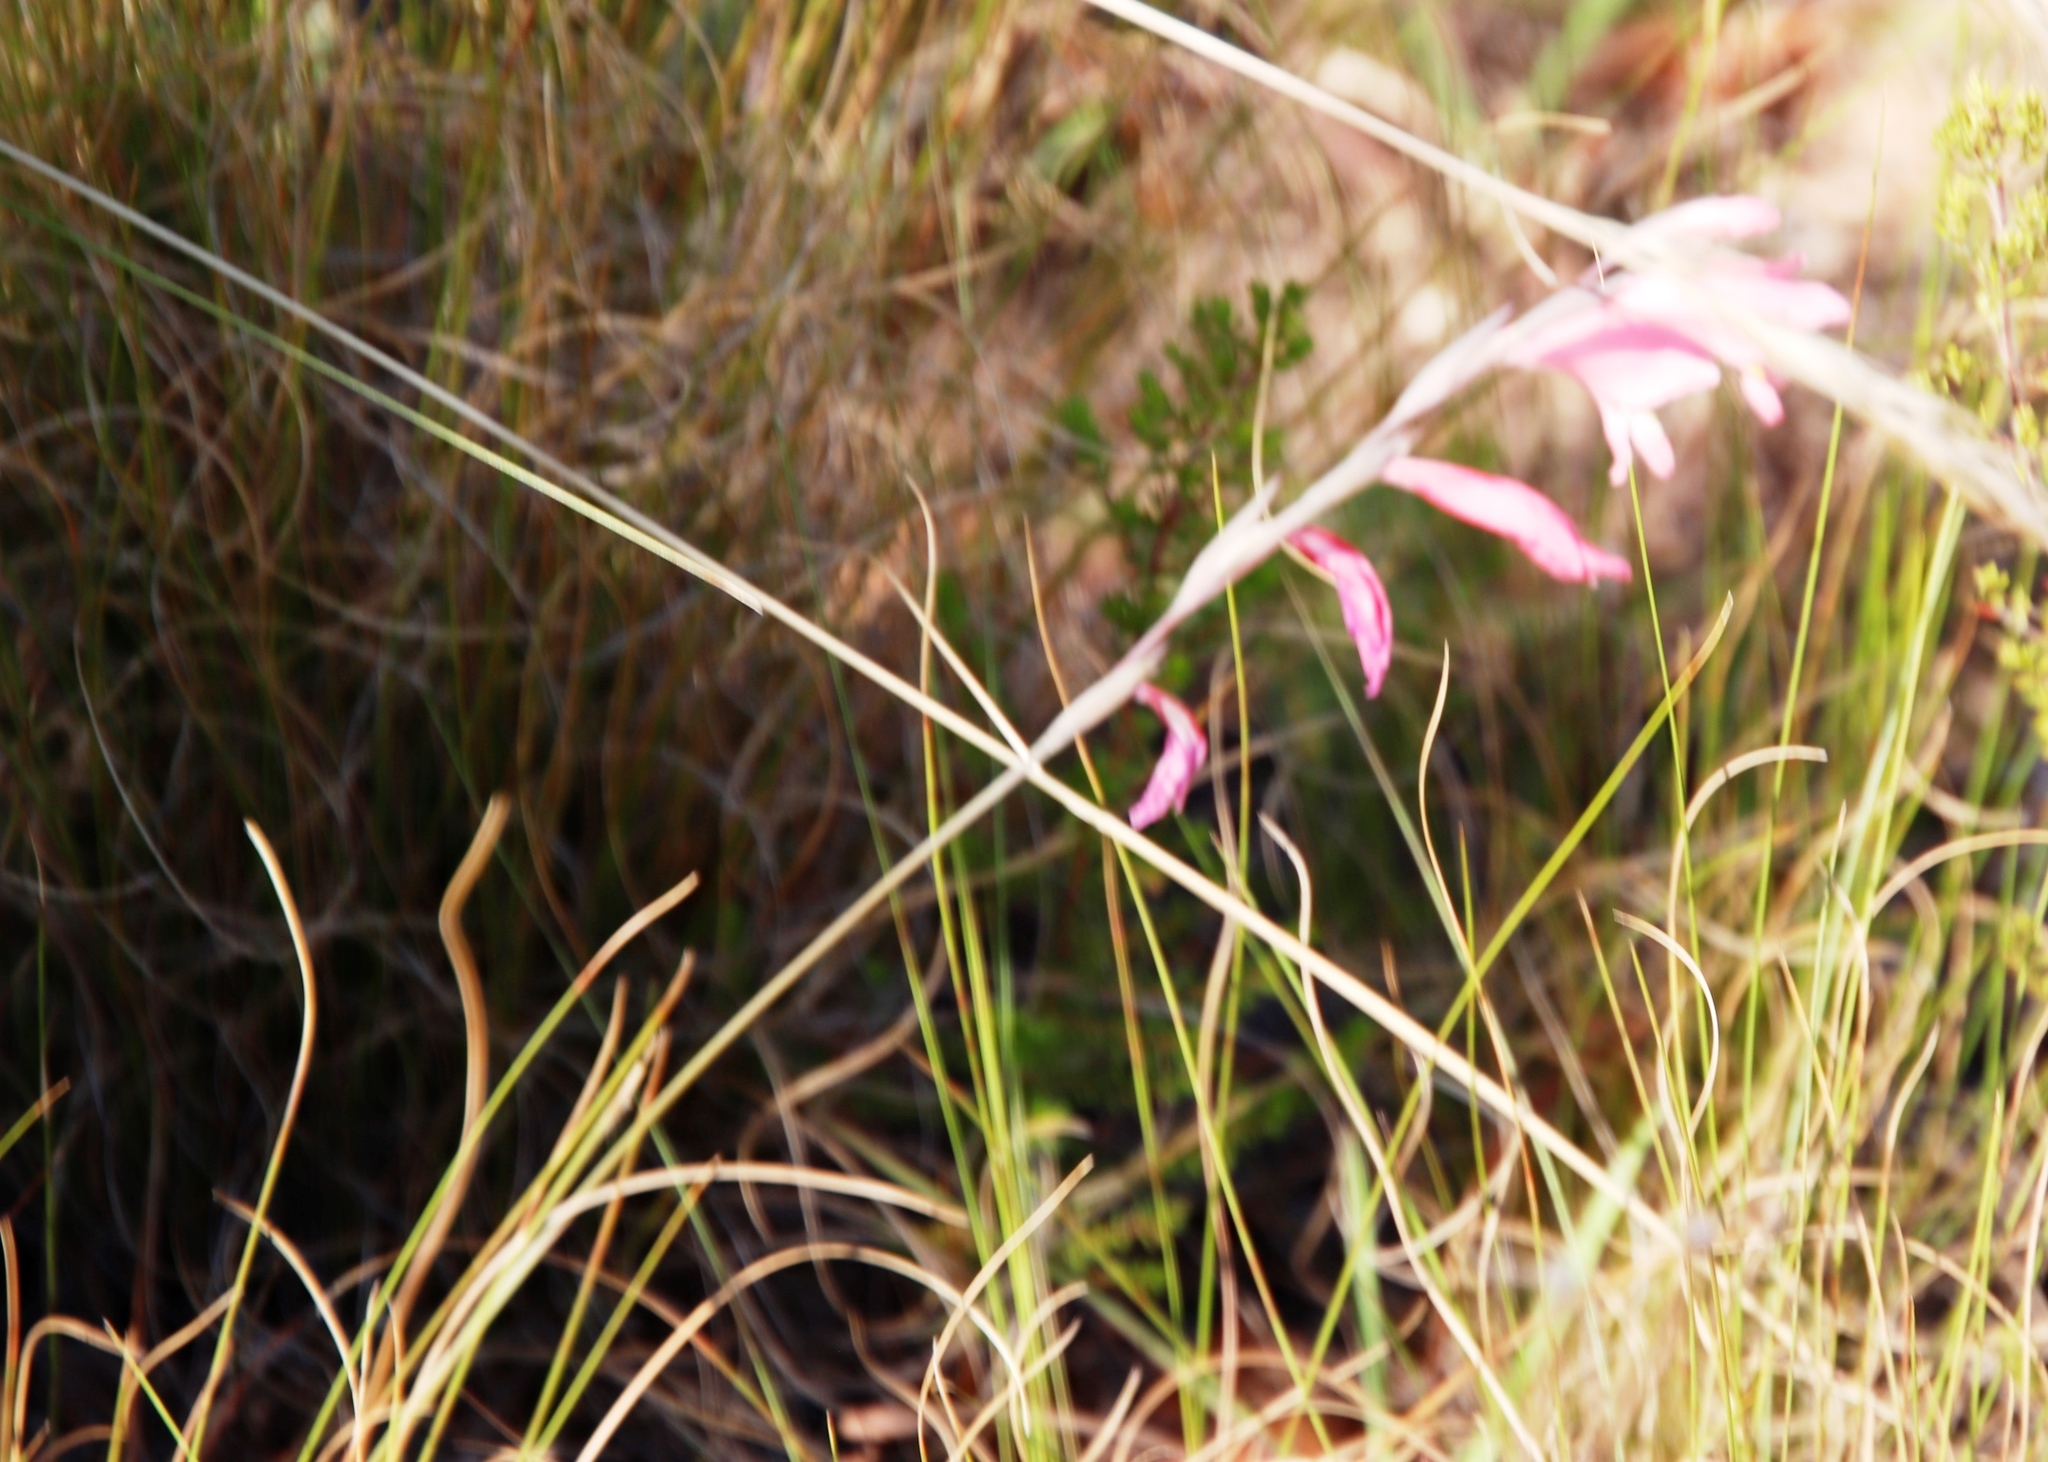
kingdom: Plantae
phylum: Tracheophyta
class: Liliopsida
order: Asparagales
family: Iridaceae
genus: Gladiolus
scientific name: Gladiolus brevifolius
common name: March pypie
